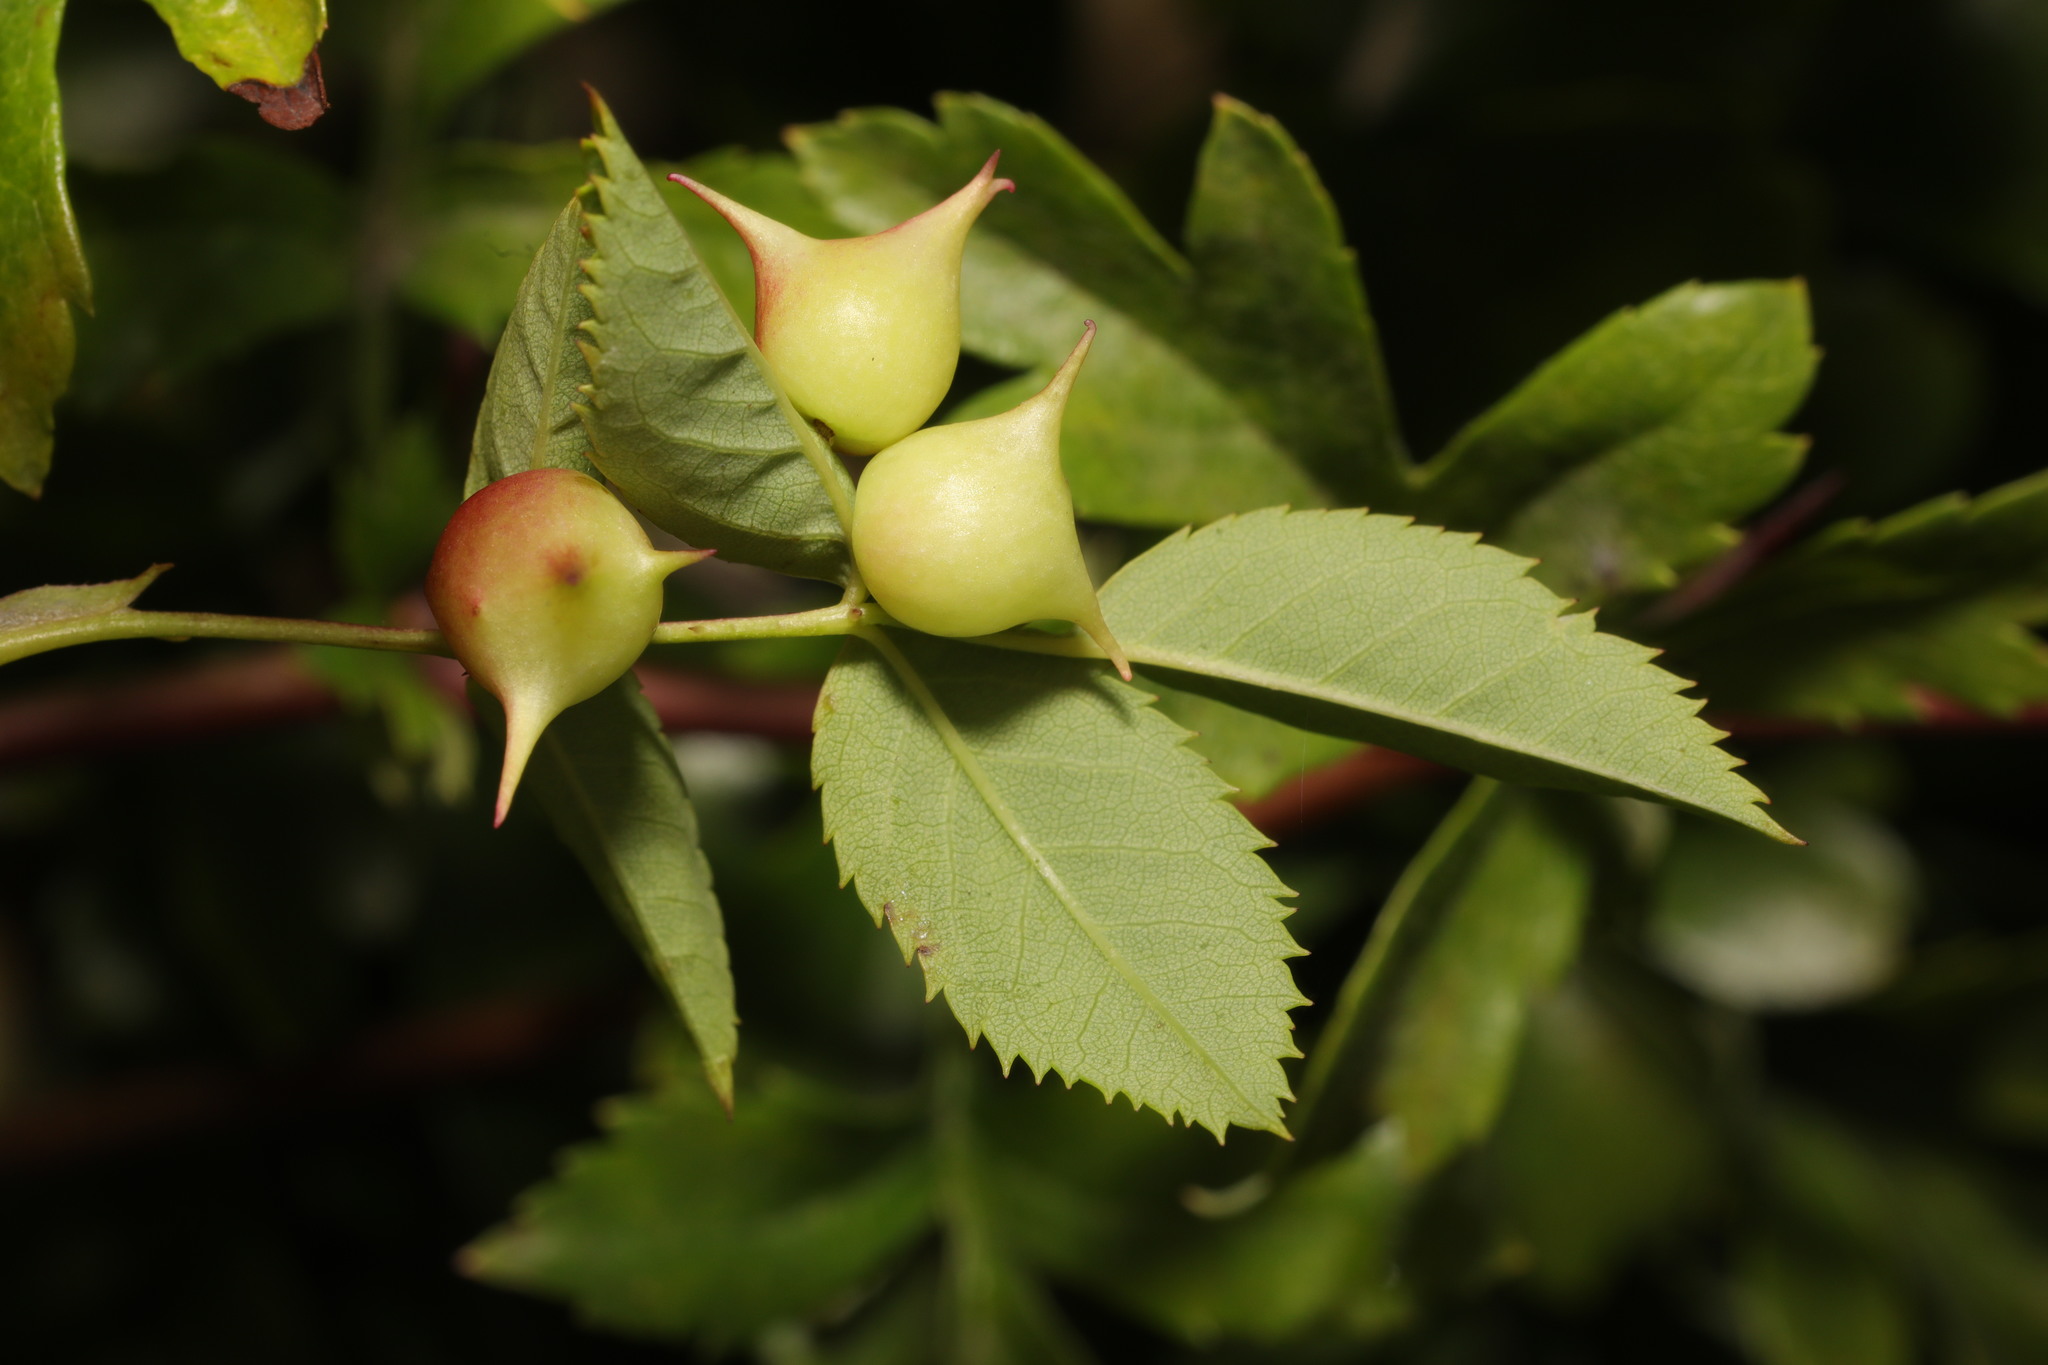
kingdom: Animalia
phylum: Arthropoda
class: Insecta
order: Hymenoptera
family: Cynipidae
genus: Diplolepis
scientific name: Diplolepis nervosa
